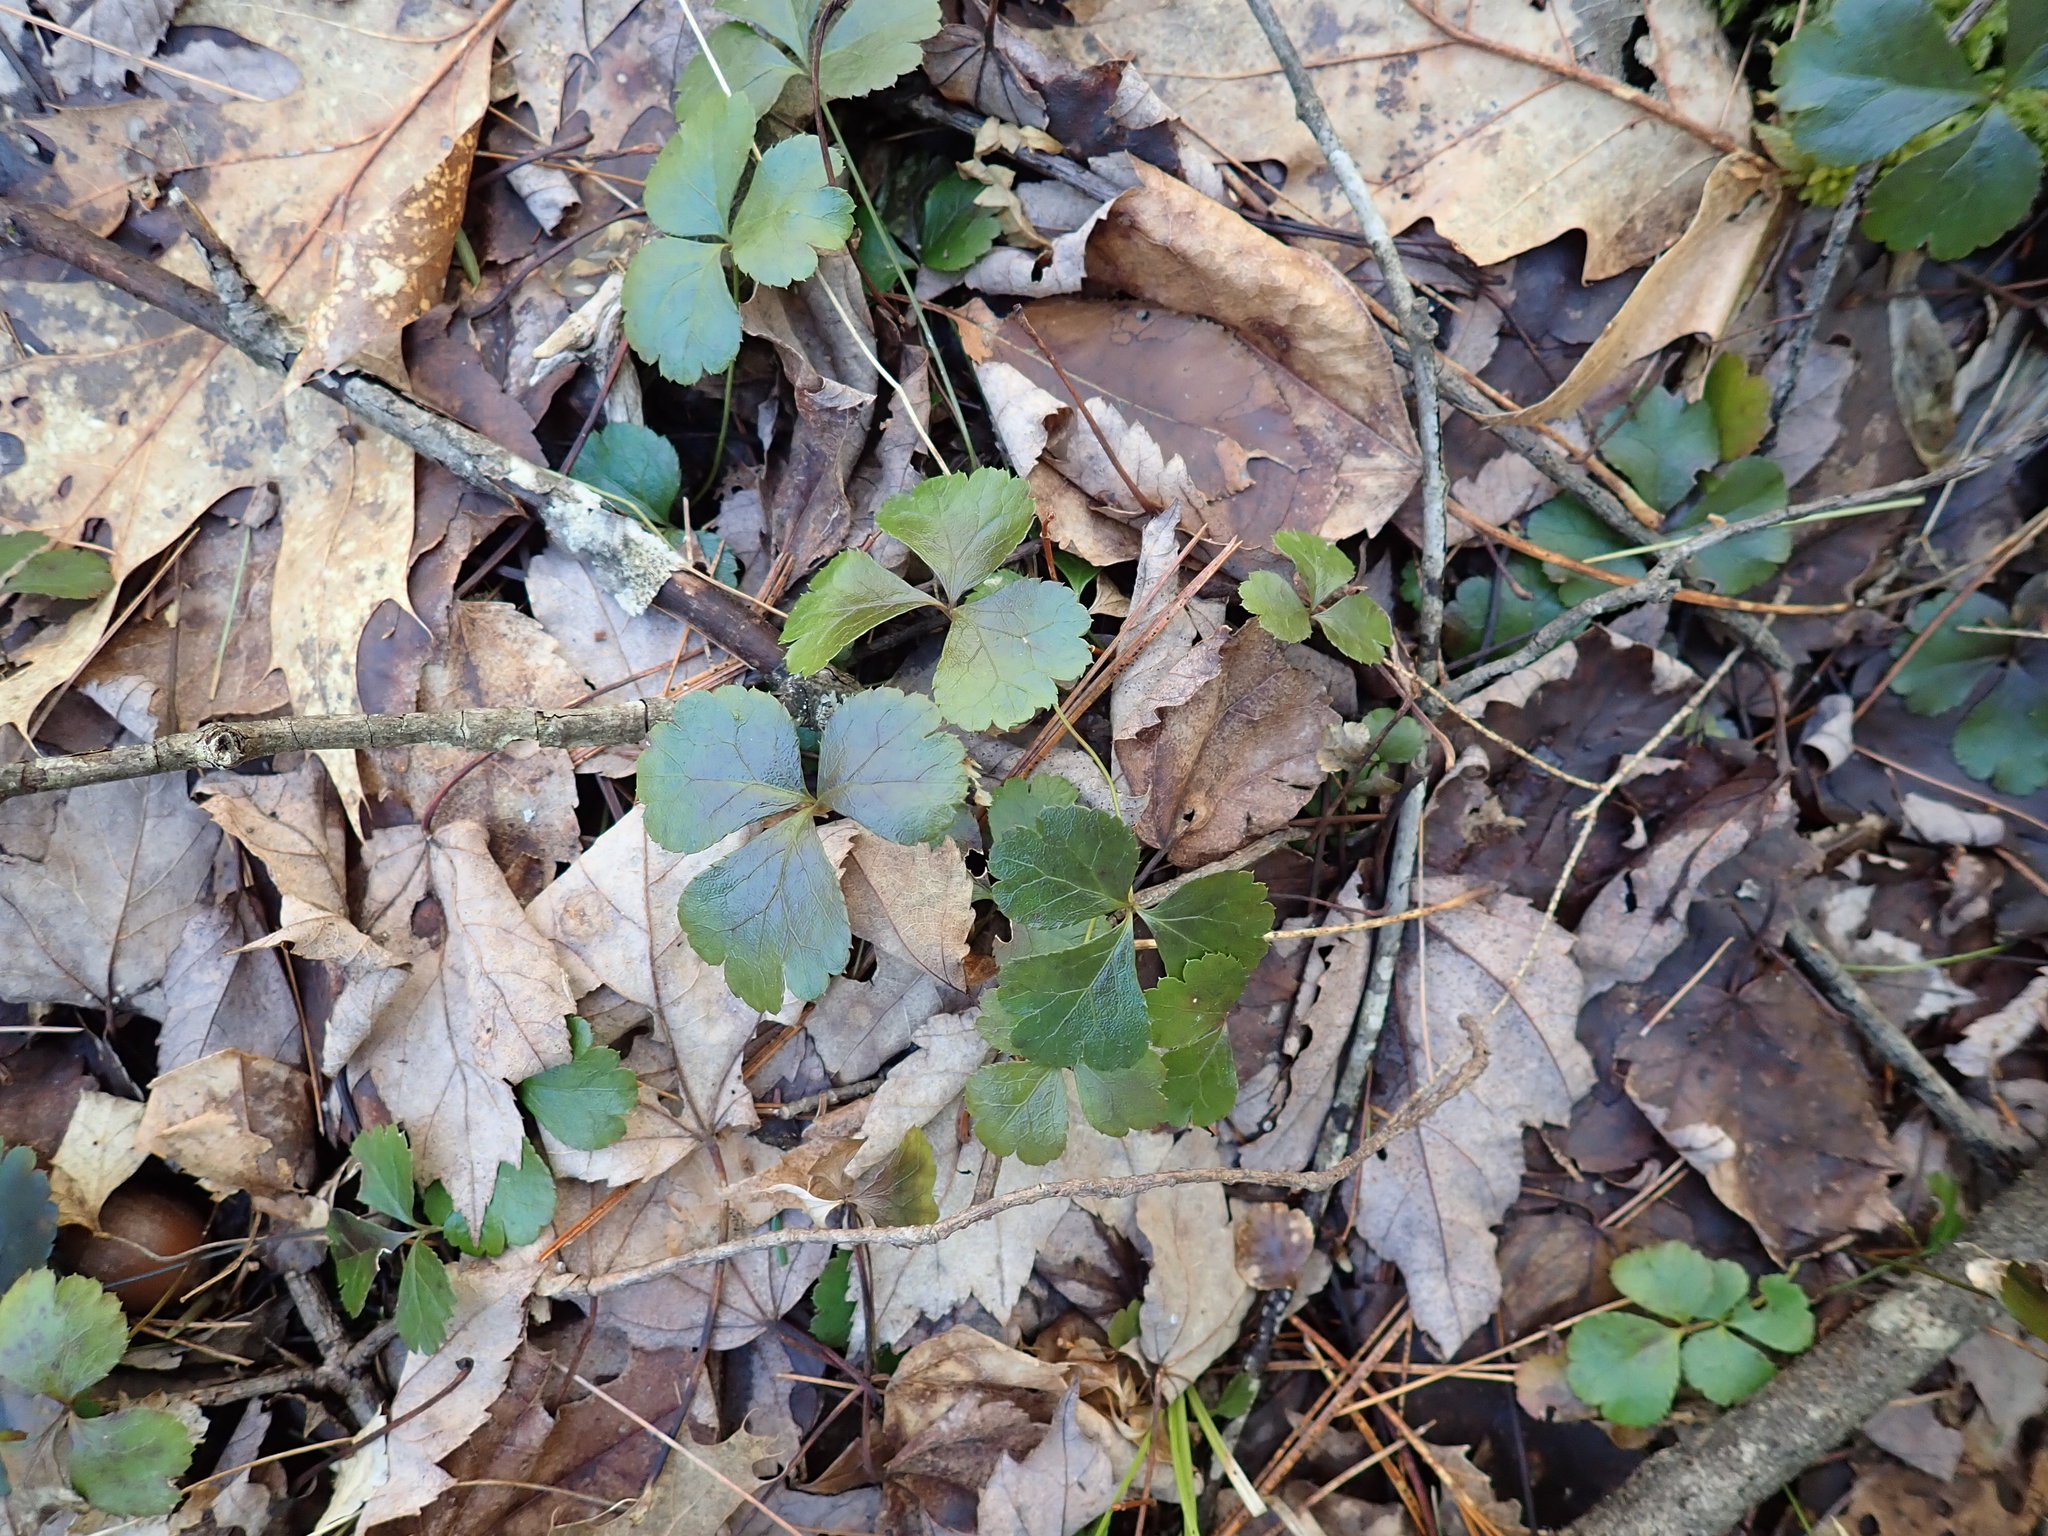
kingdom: Plantae
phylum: Tracheophyta
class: Magnoliopsida
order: Ranunculales
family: Ranunculaceae
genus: Coptis
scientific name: Coptis trifolia
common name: Canker-root
